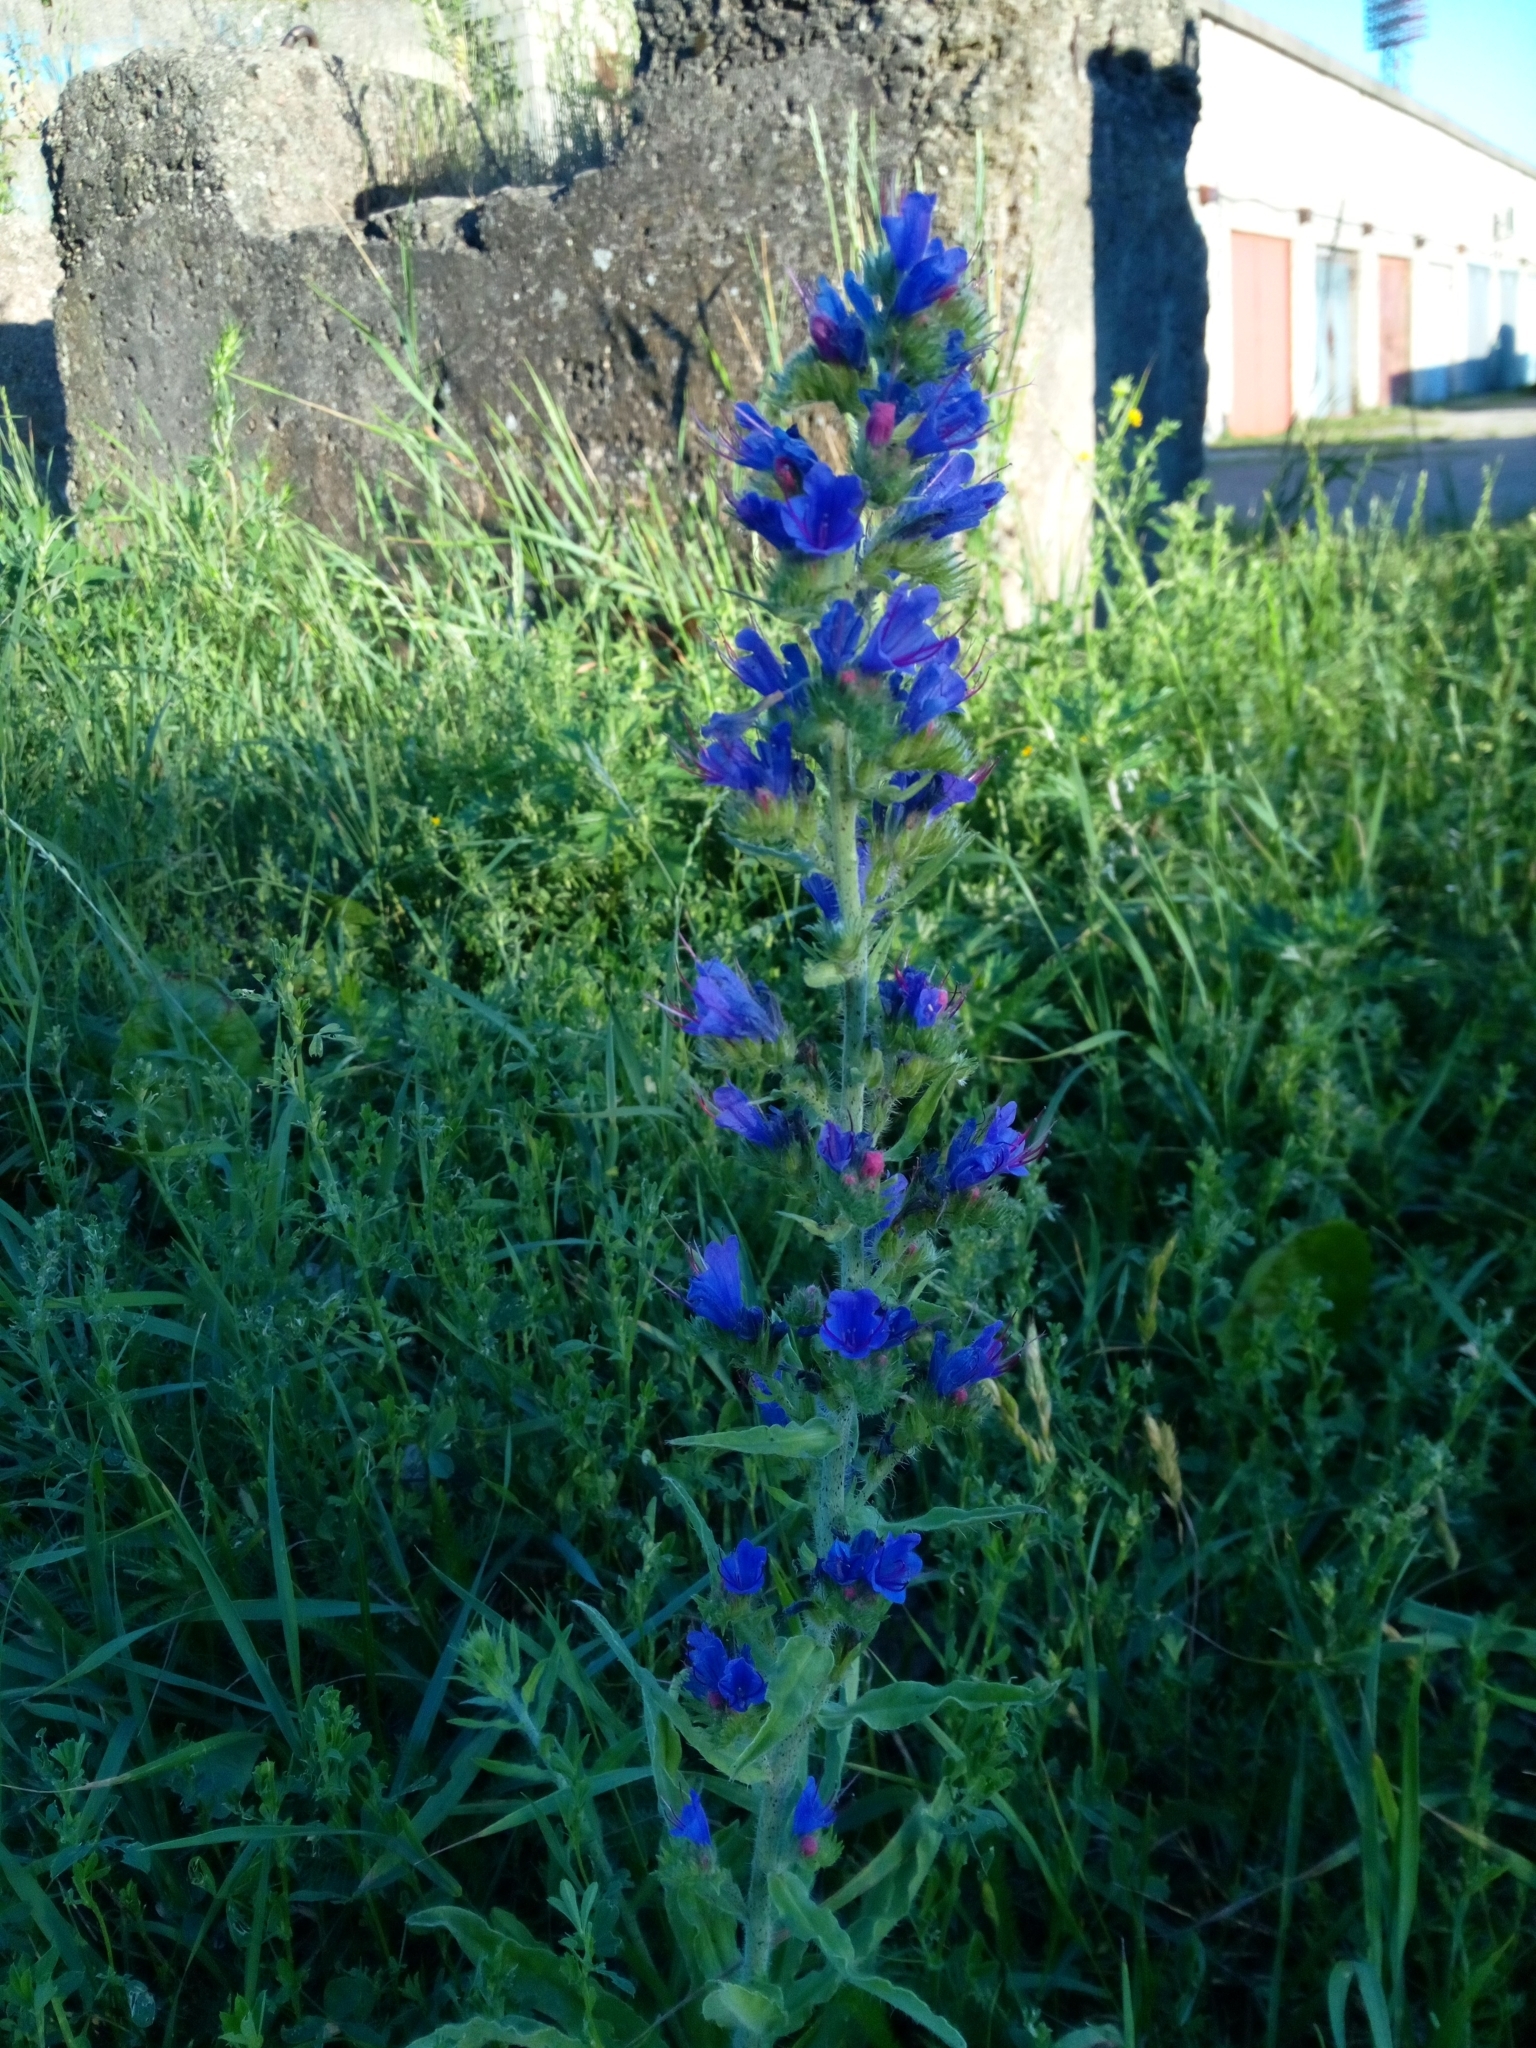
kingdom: Plantae
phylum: Tracheophyta
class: Magnoliopsida
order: Boraginales
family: Boraginaceae
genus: Echium
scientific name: Echium vulgare
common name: Common viper's bugloss
